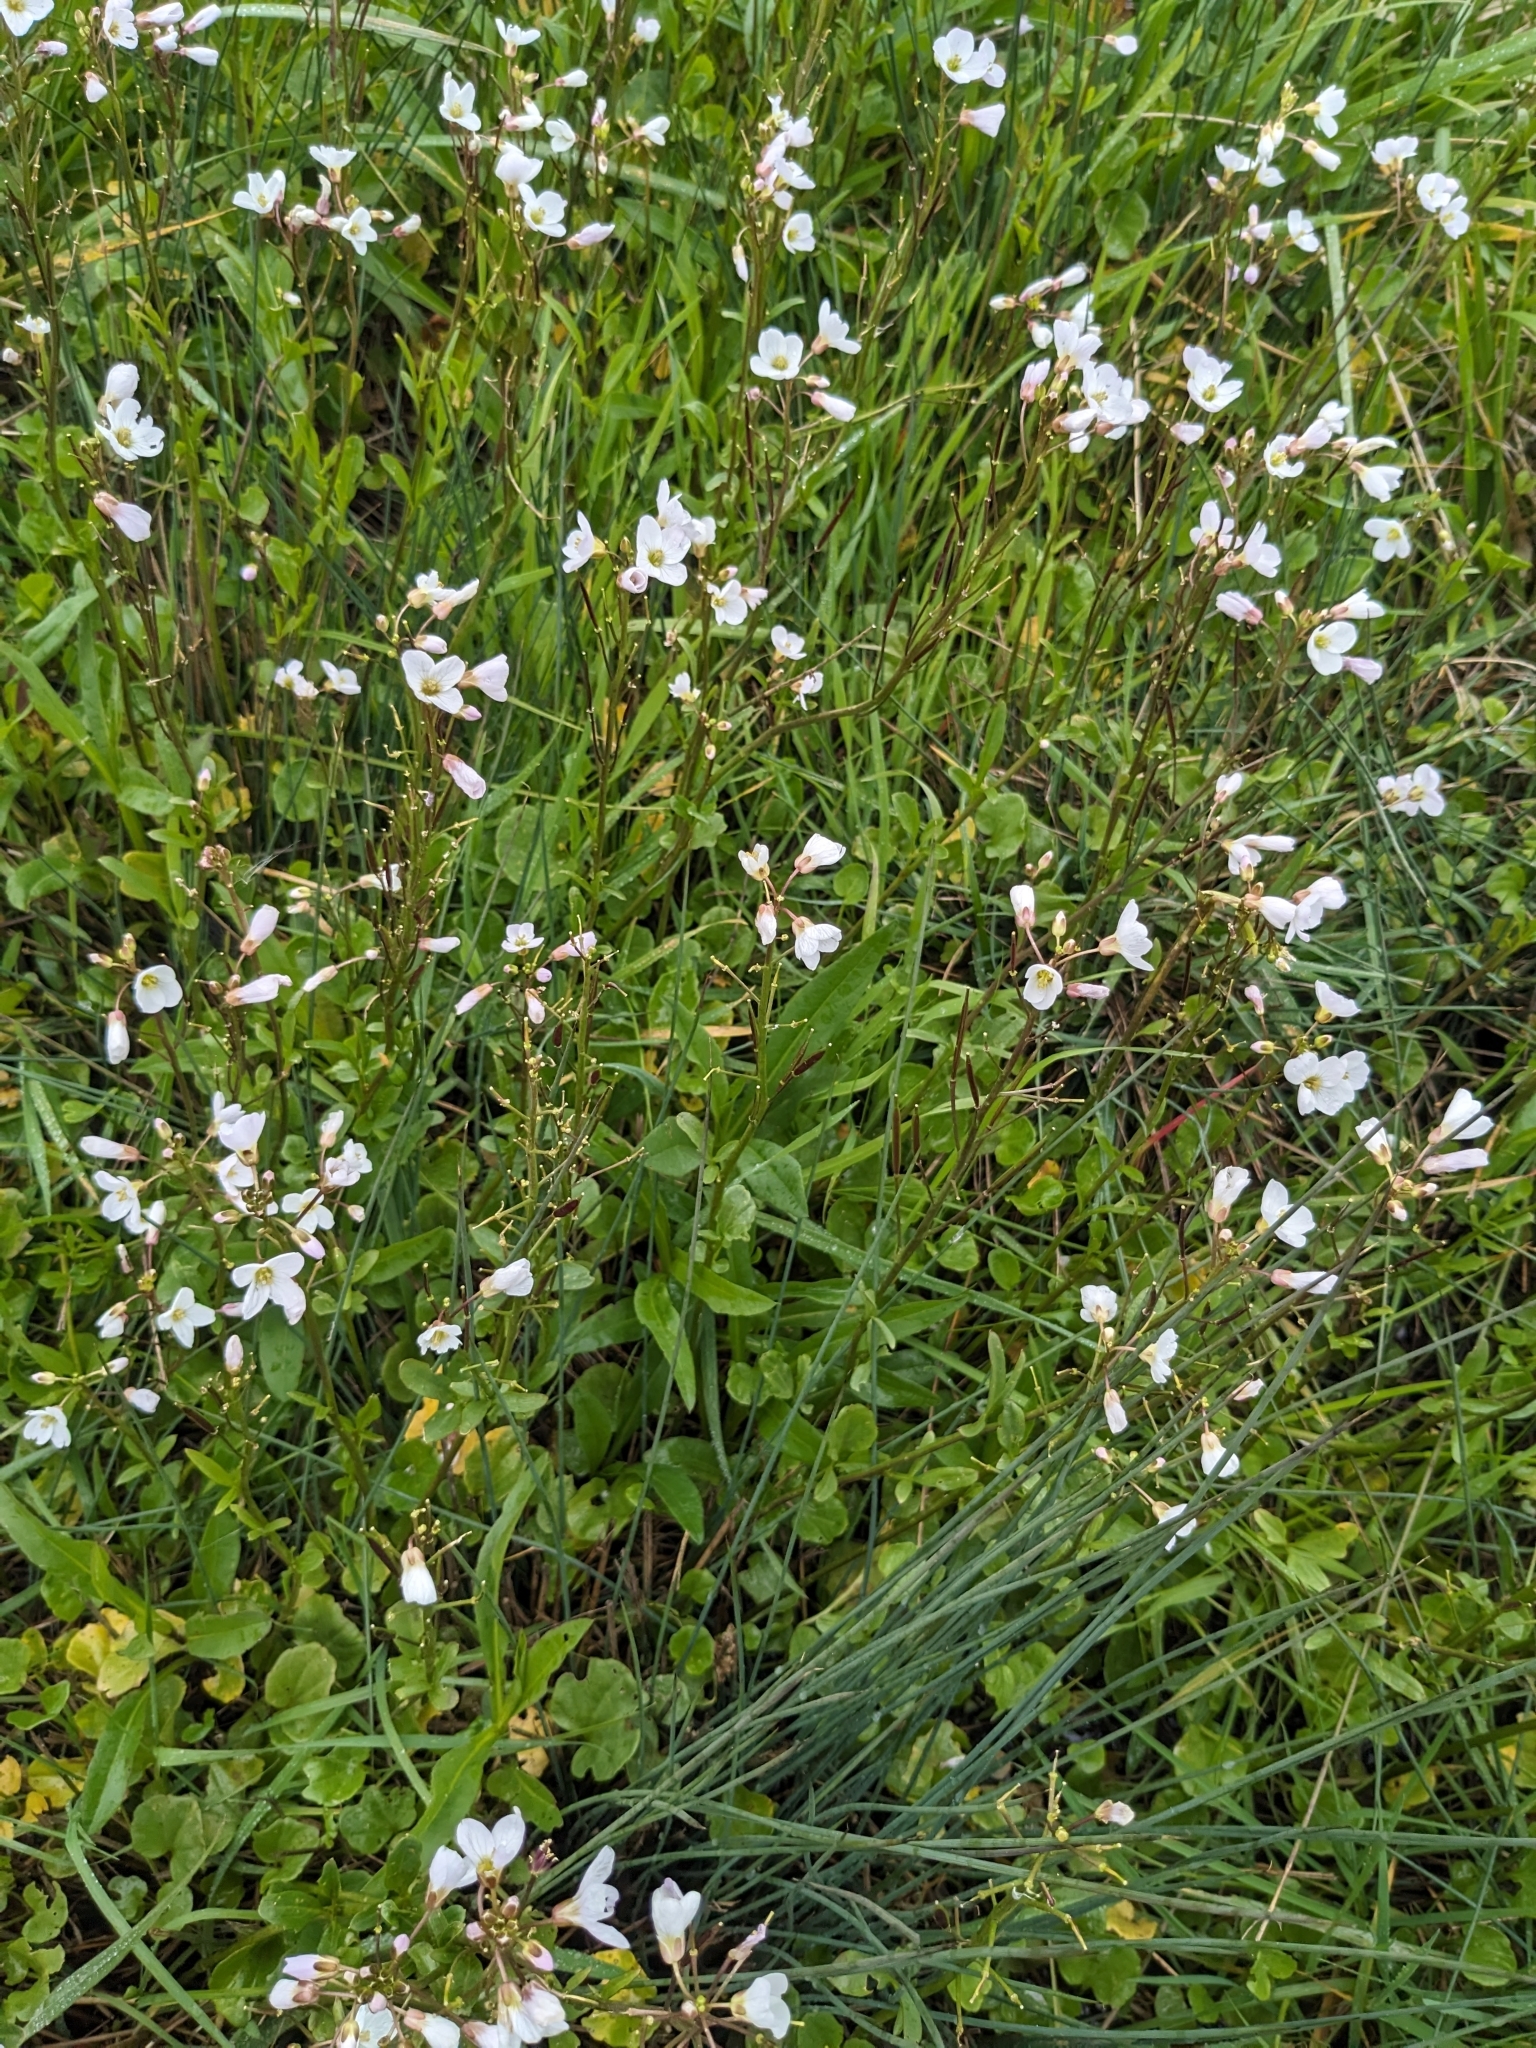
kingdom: Plantae
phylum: Tracheophyta
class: Magnoliopsida
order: Cucurbitales
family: Cucurbitaceae
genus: Marah
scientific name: Marah fabacea
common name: California manroot
